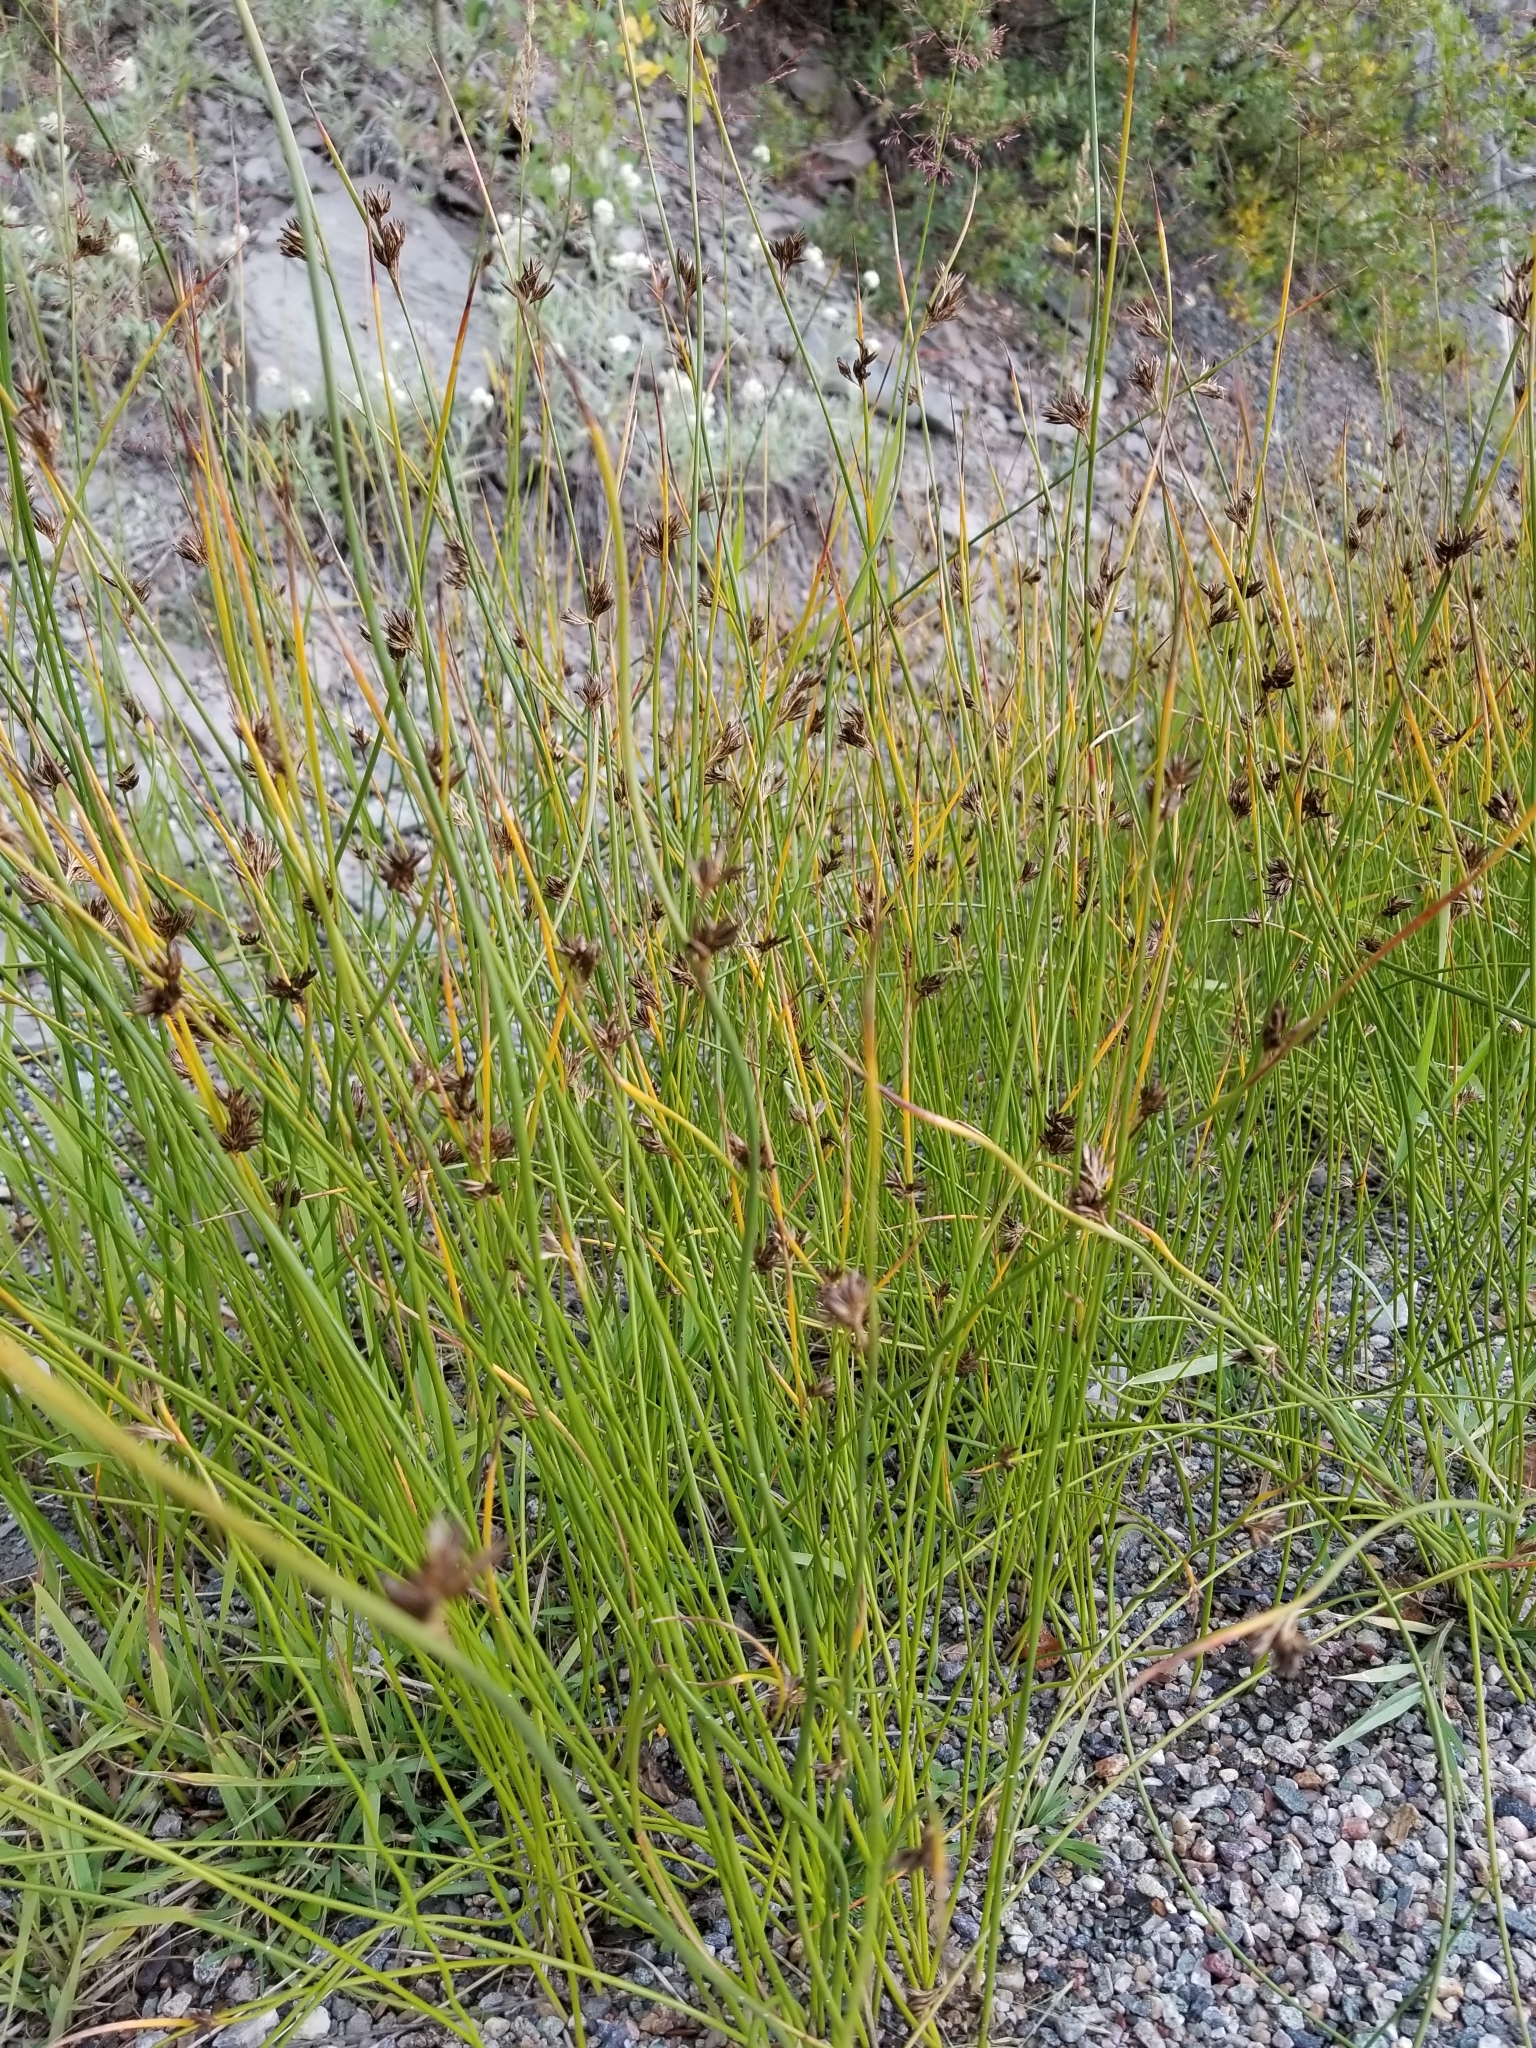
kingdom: Plantae
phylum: Tracheophyta
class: Liliopsida
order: Poales
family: Juncaceae
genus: Juncus
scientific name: Juncus balticus
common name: Baltic rush
